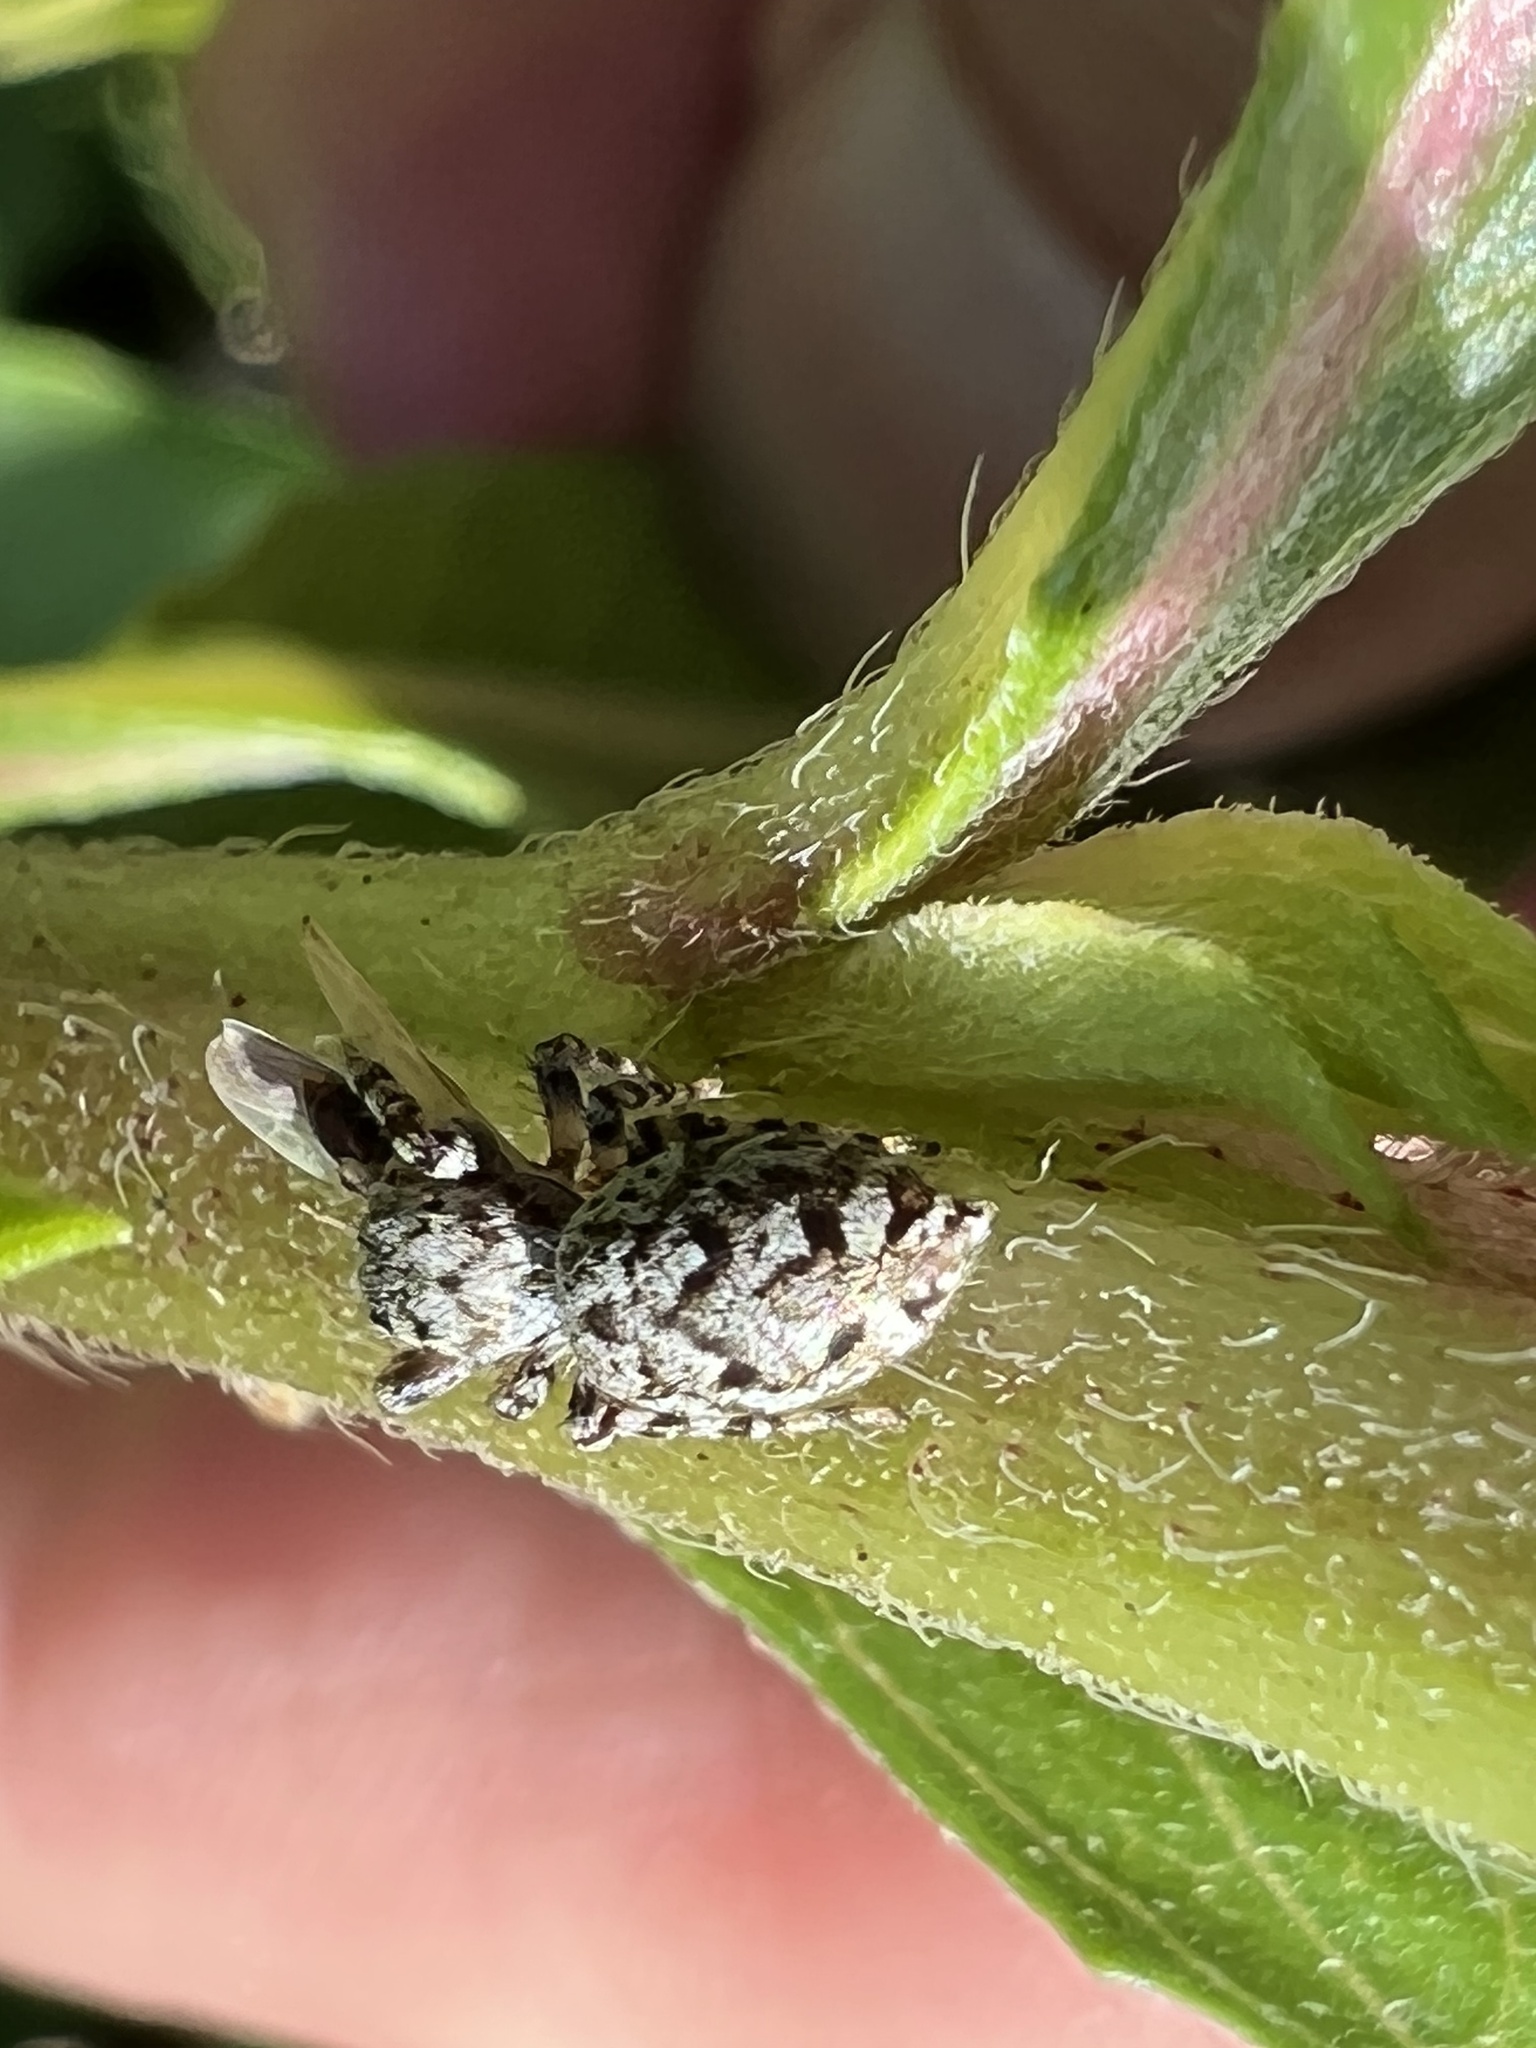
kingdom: Animalia
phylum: Arthropoda
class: Arachnida
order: Araneae
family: Salticidae
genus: Pelegrina
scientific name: Pelegrina galathea
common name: Jumping spiders
